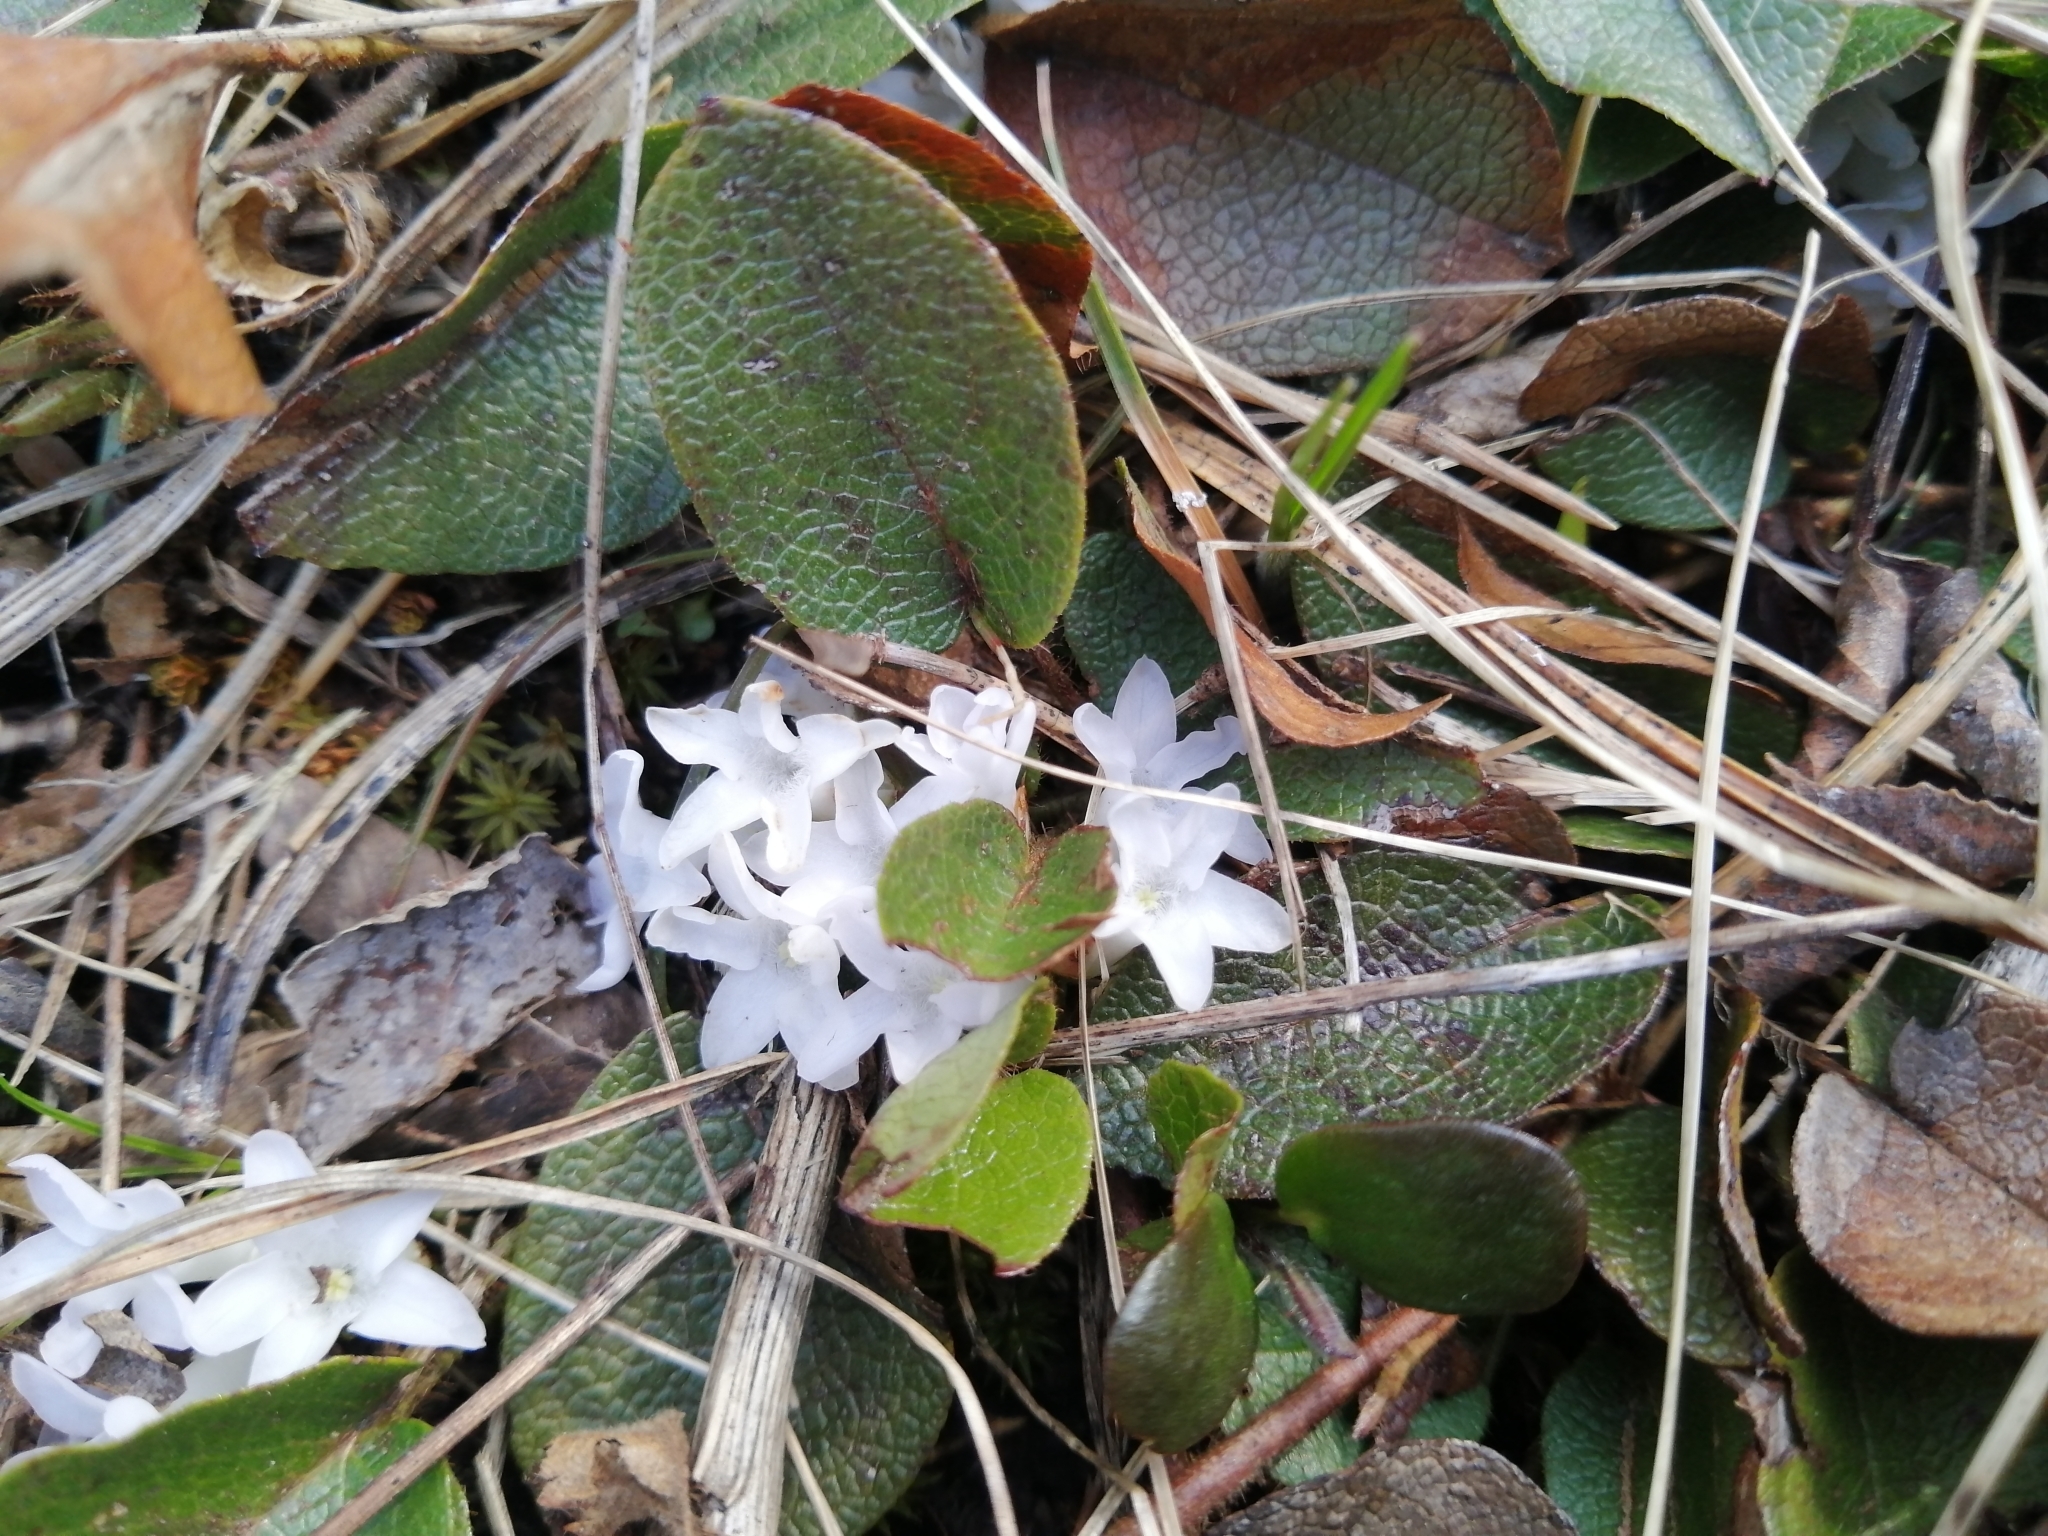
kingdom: Plantae
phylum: Tracheophyta
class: Magnoliopsida
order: Ericales
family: Ericaceae
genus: Epigaea
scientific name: Epigaea repens
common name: Gravelroot
